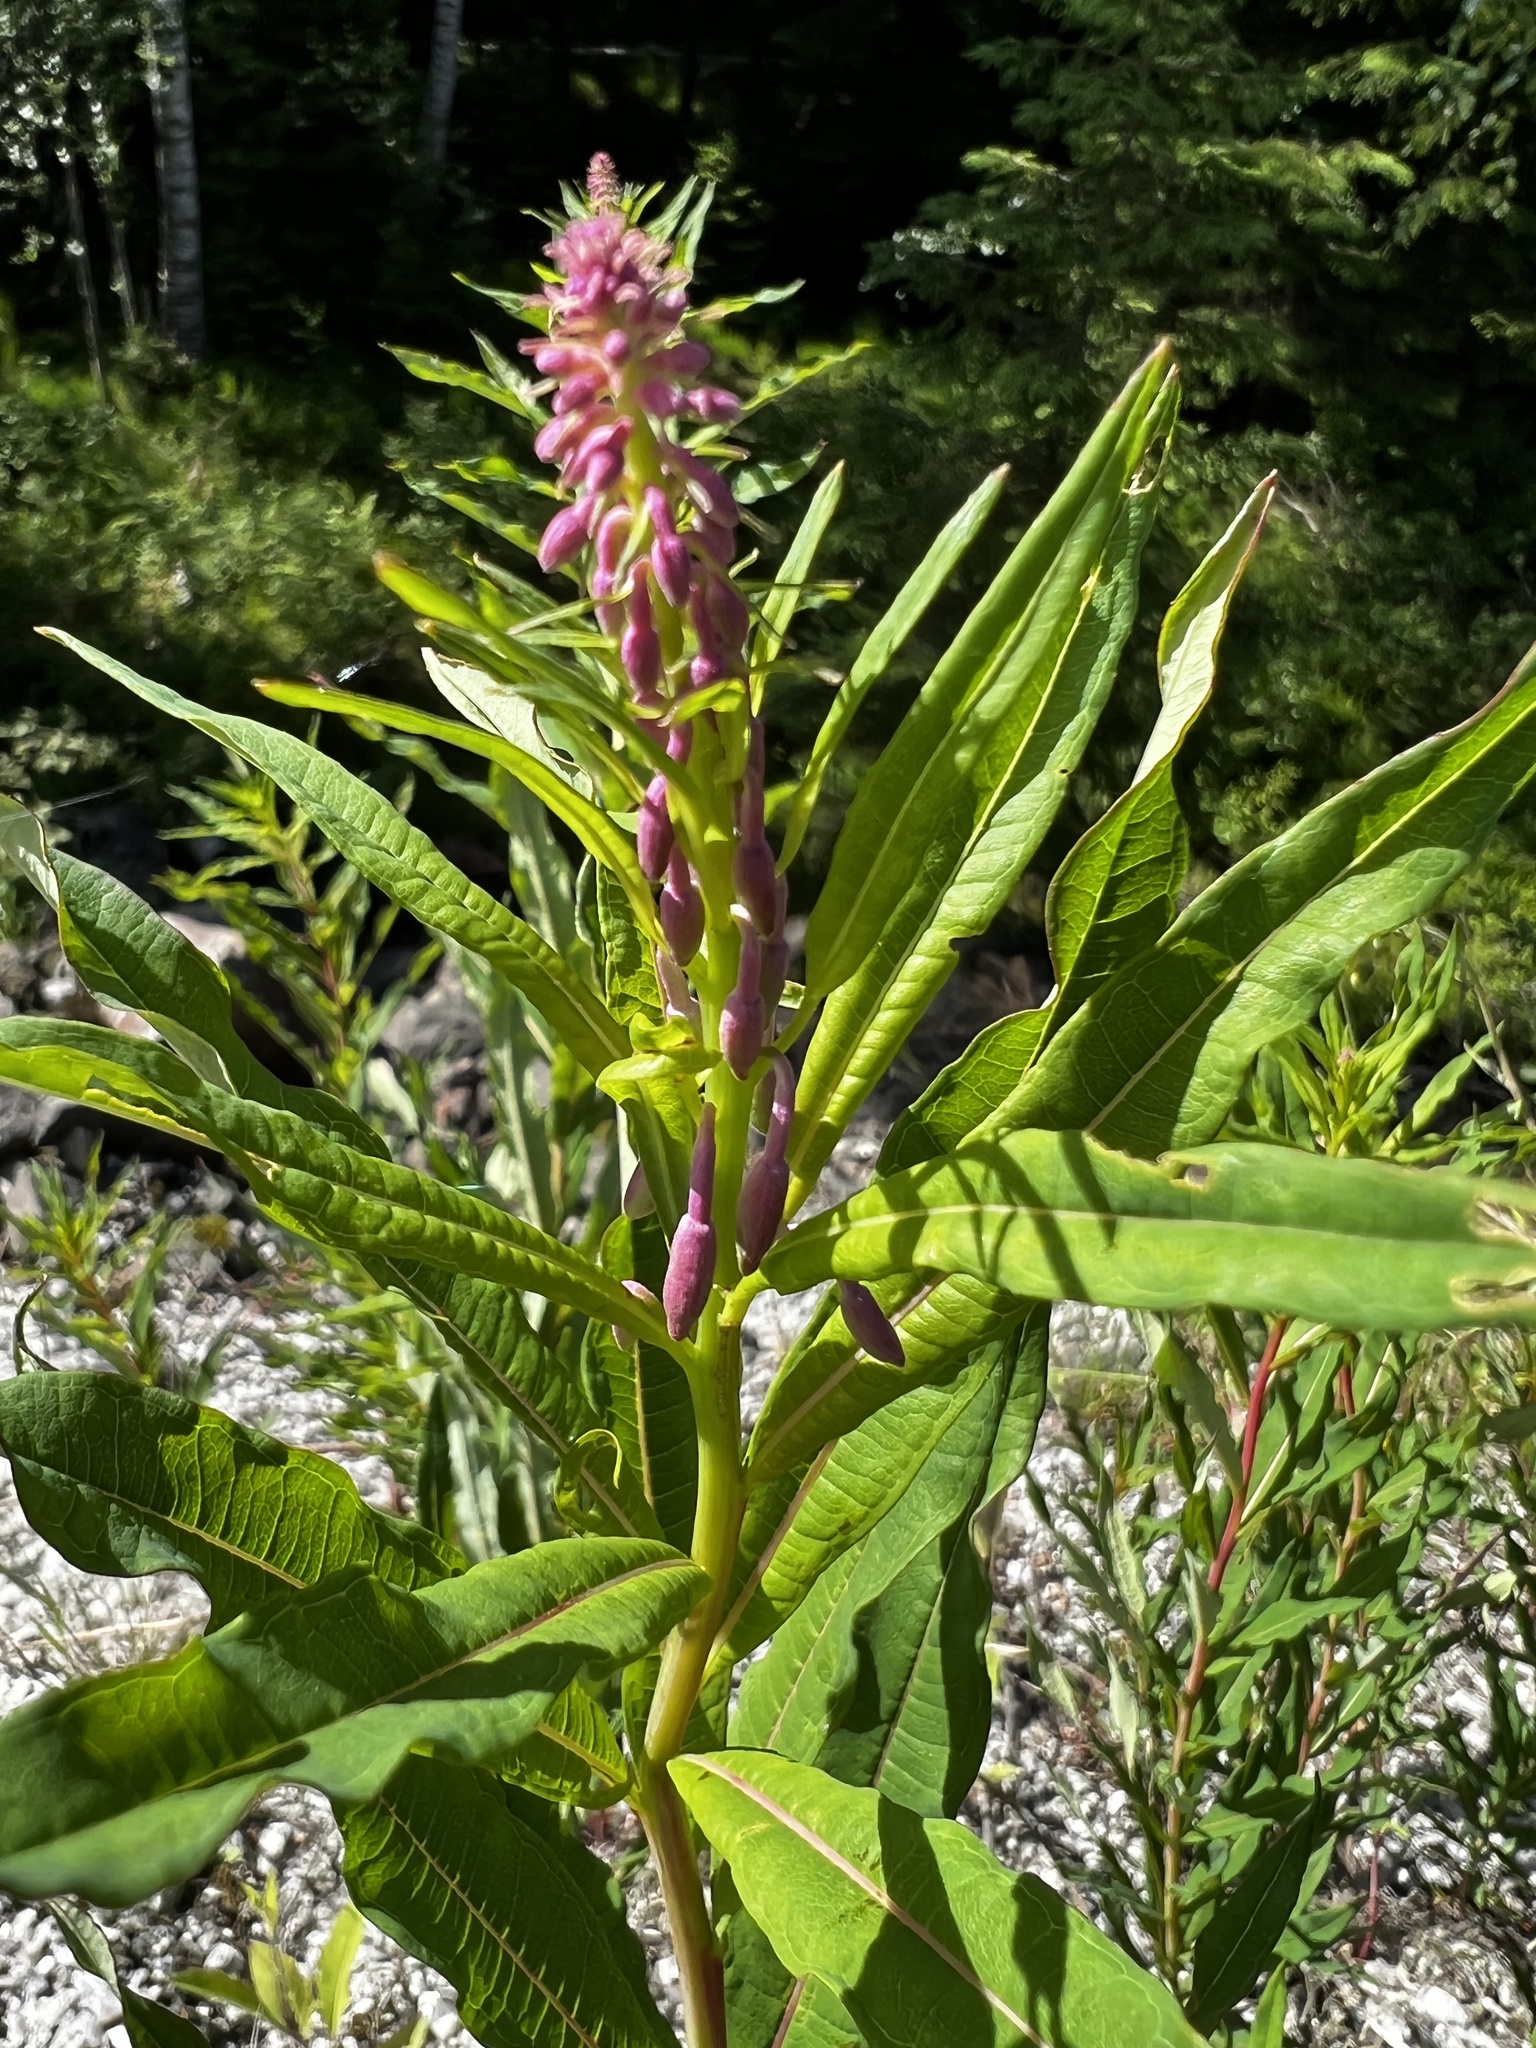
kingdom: Plantae
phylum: Tracheophyta
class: Magnoliopsida
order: Myrtales
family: Onagraceae
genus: Chamaenerion
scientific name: Chamaenerion angustifolium
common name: Fireweed
